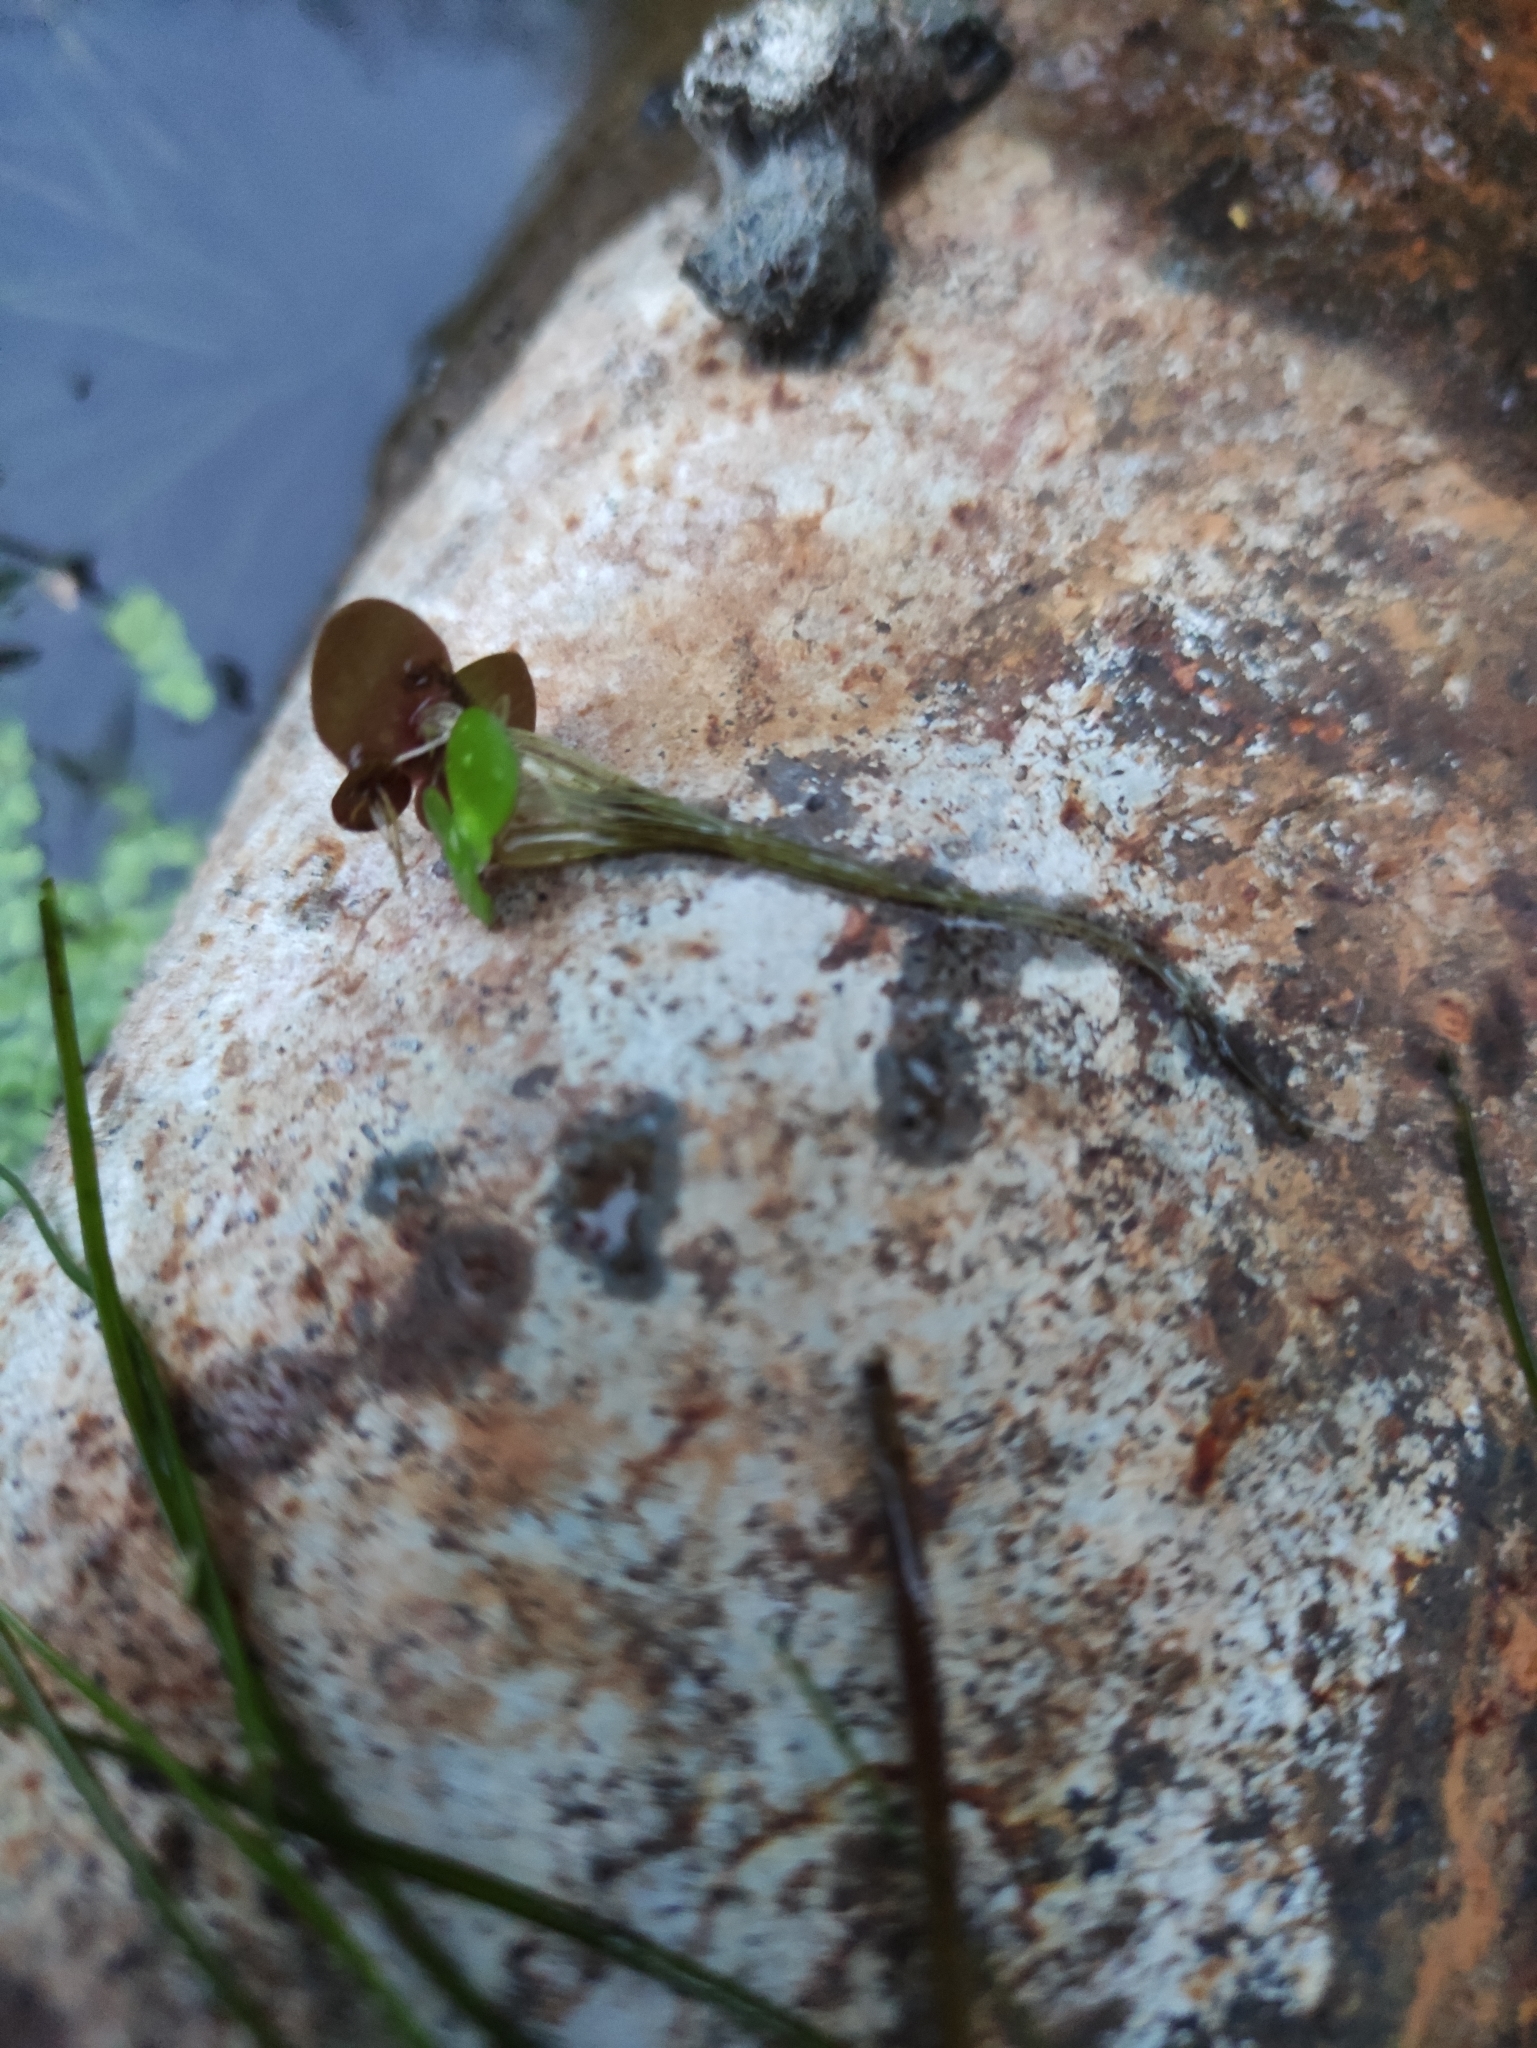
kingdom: Plantae
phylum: Tracheophyta
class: Liliopsida
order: Alismatales
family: Araceae
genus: Spirodela
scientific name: Spirodela polyrhiza
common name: Great duckweed
